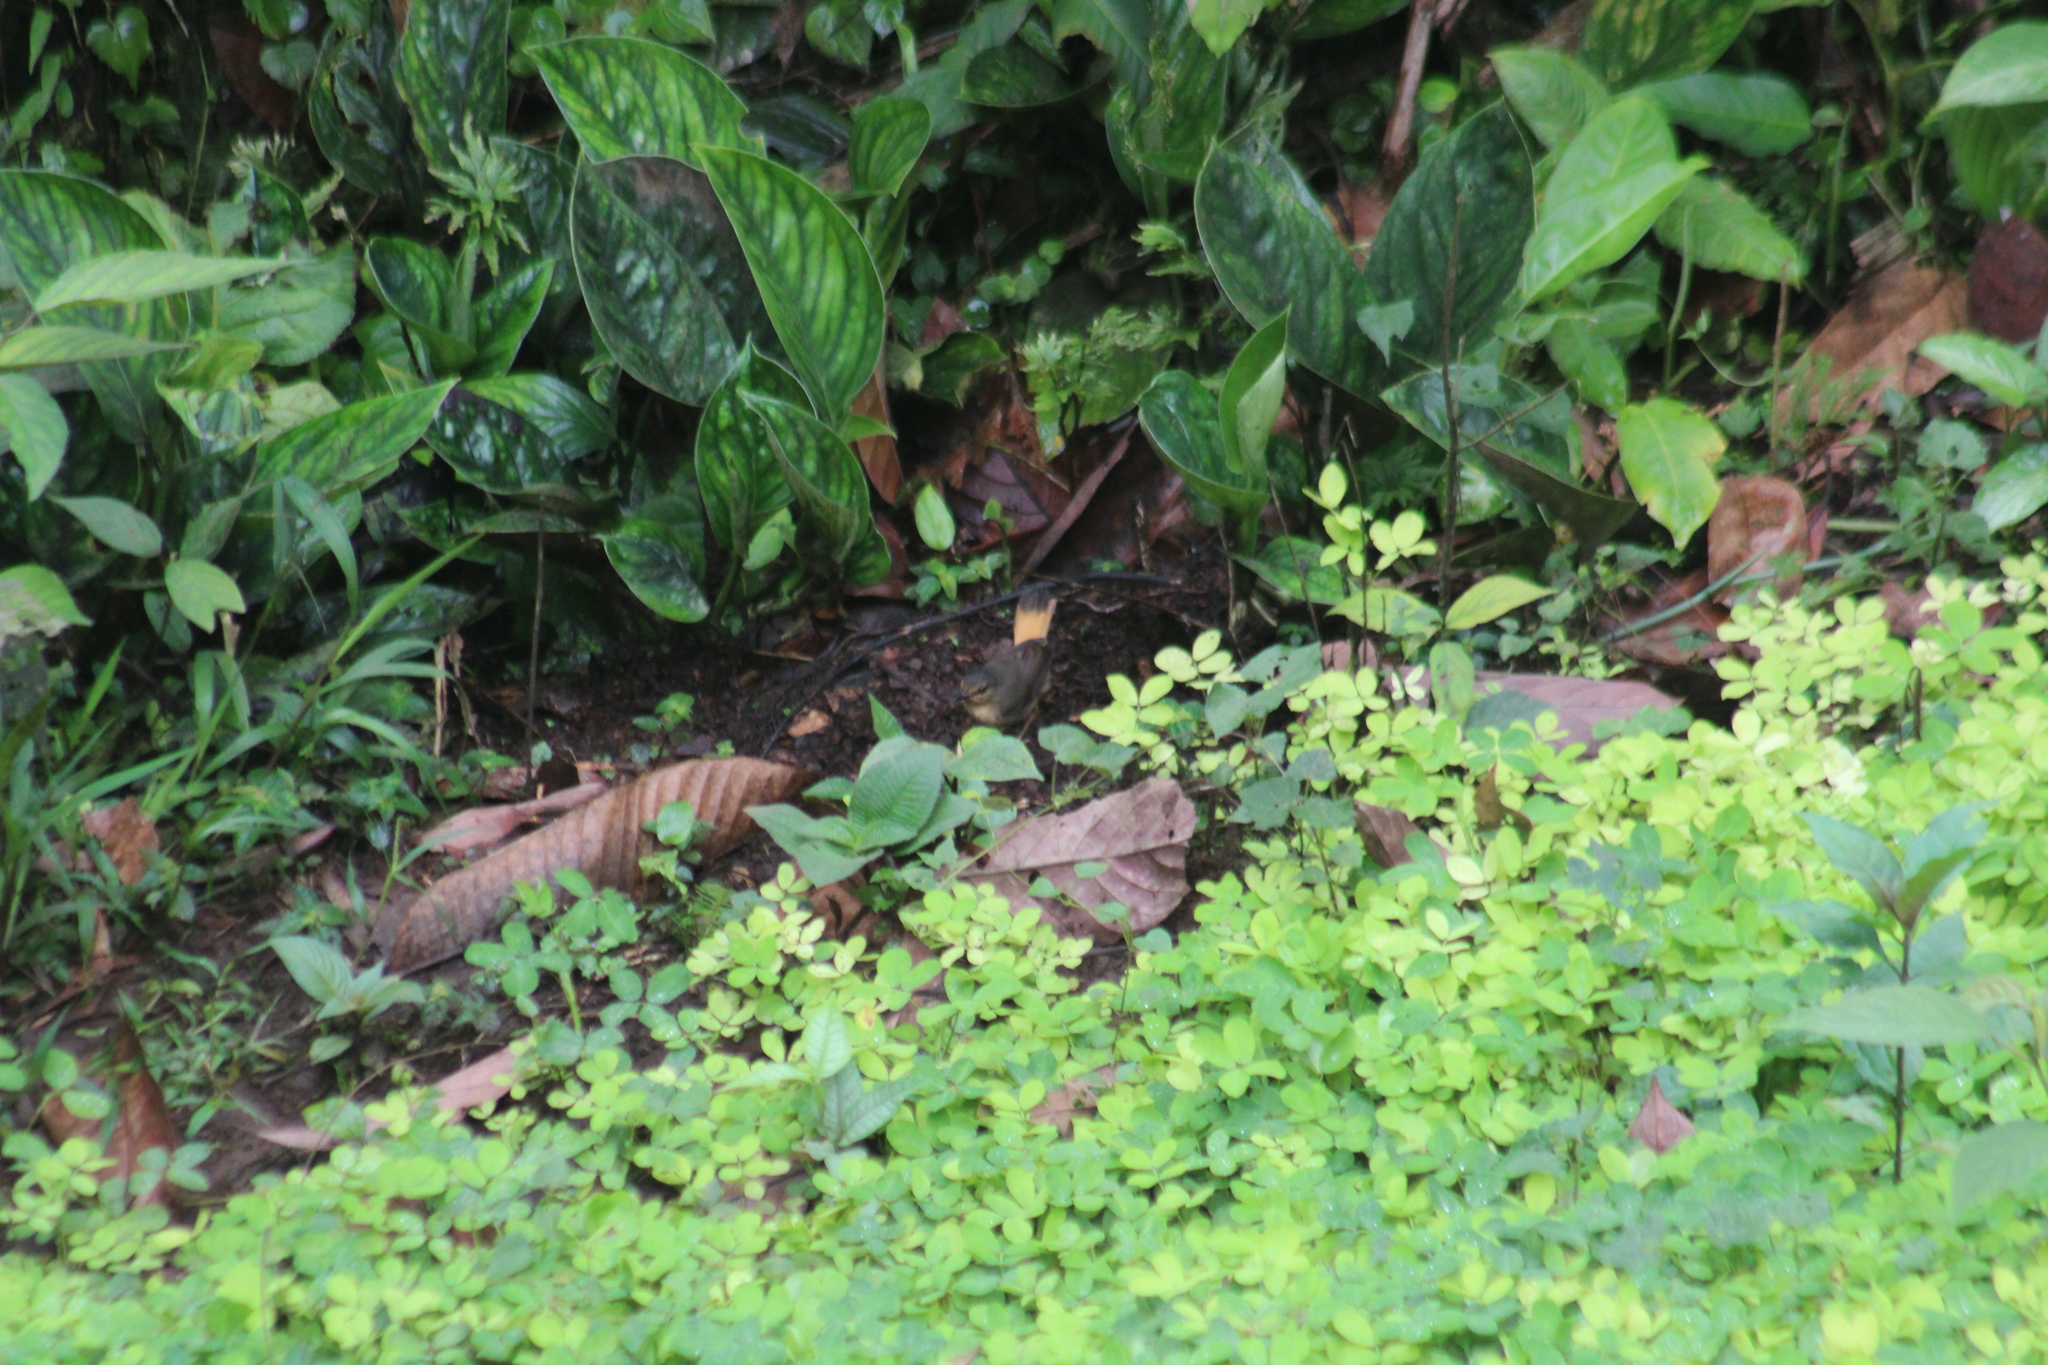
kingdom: Animalia
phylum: Chordata
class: Aves
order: Passeriformes
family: Parulidae
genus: Myiothlypis
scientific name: Myiothlypis fulvicauda
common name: Buff-rumped warbler
